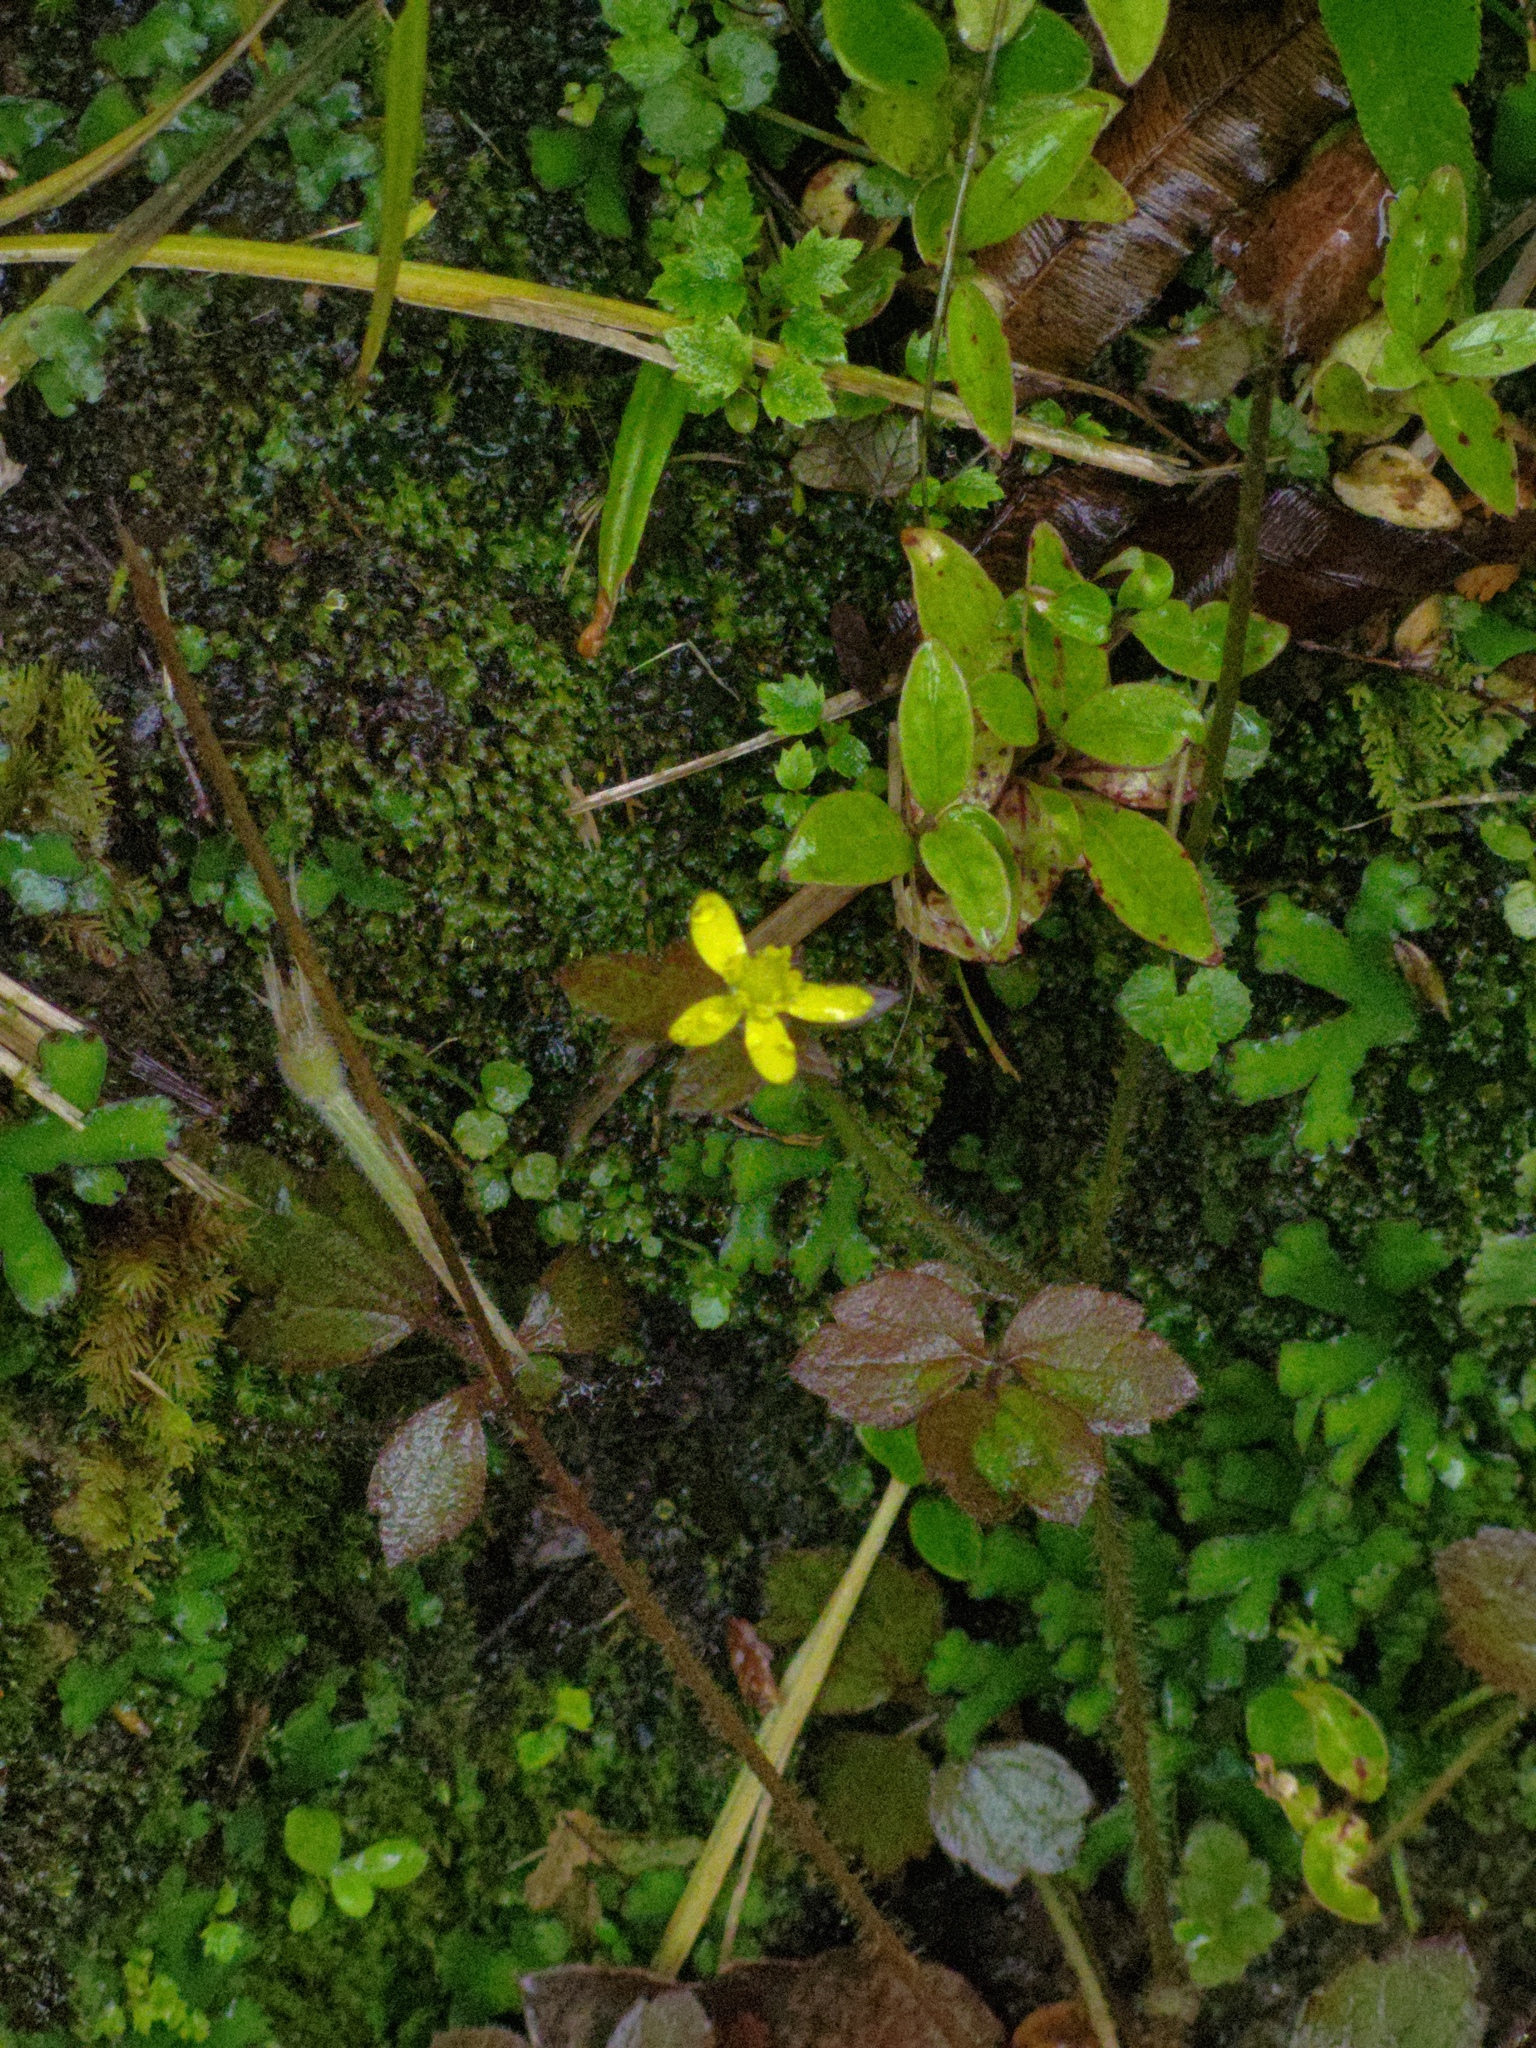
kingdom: Plantae
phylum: Tracheophyta
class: Magnoliopsida
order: Ranunculales
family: Ranunculaceae
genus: Ranunculus
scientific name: Ranunculus reflexus
